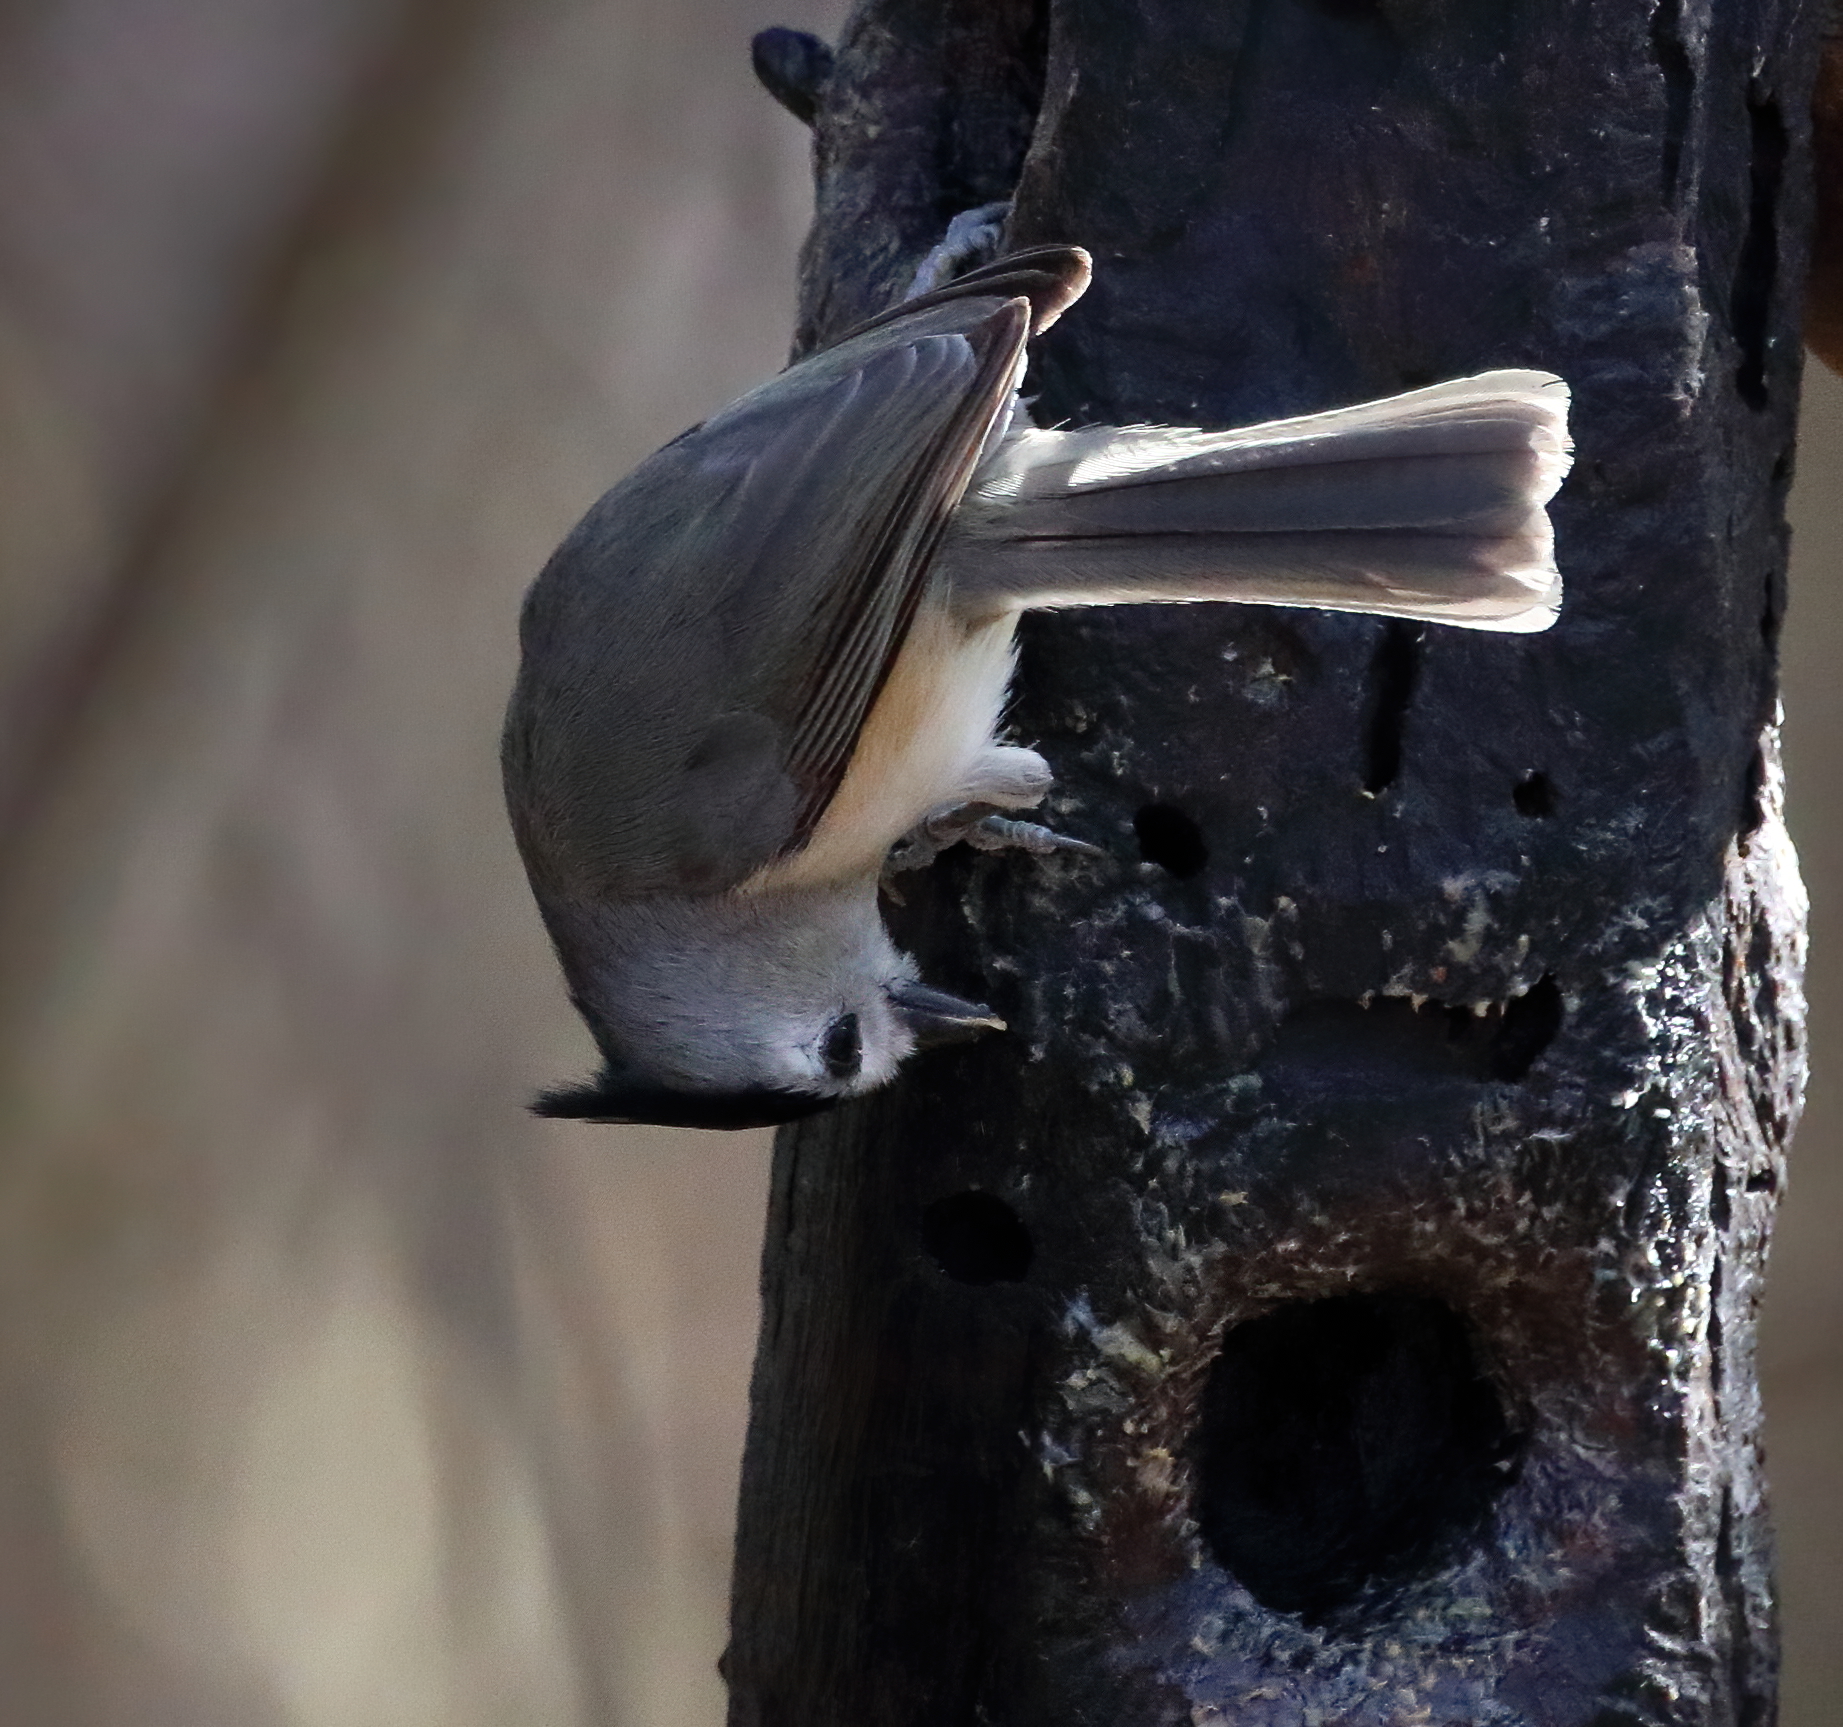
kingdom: Animalia
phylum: Chordata
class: Aves
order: Passeriformes
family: Paridae
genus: Baeolophus
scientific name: Baeolophus atricristatus
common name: Black-crested titmouse
